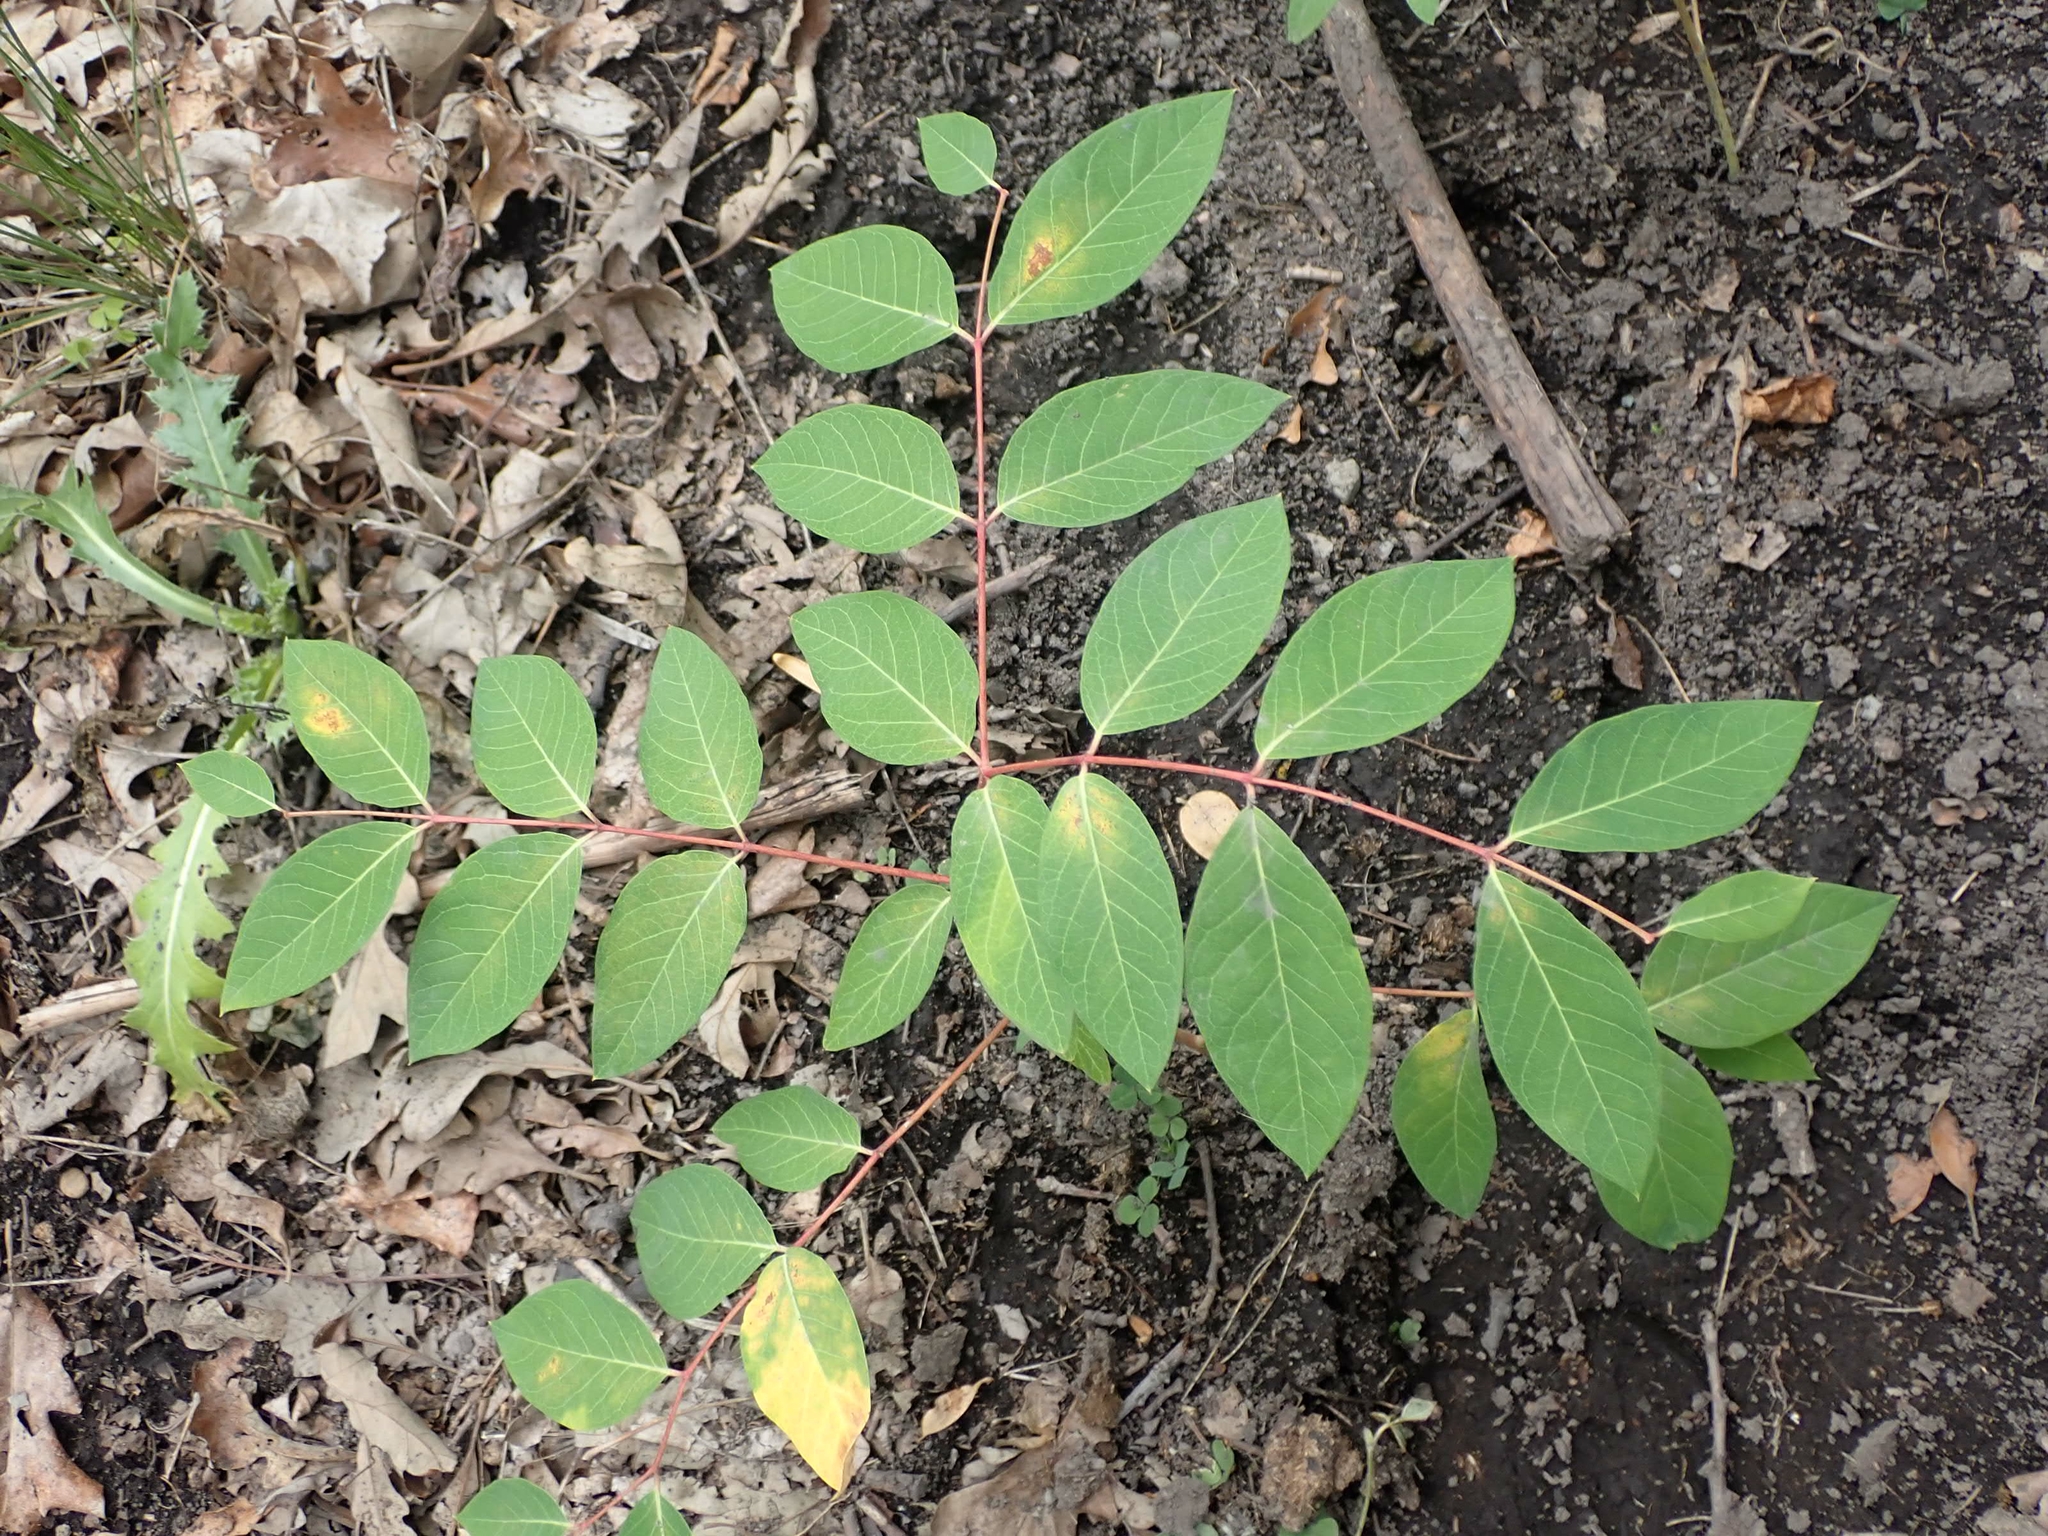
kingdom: Plantae
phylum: Tracheophyta
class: Magnoliopsida
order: Gentianales
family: Apocynaceae
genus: Apocynum
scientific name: Apocynum androsaemifolium
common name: Spreading dogbane
